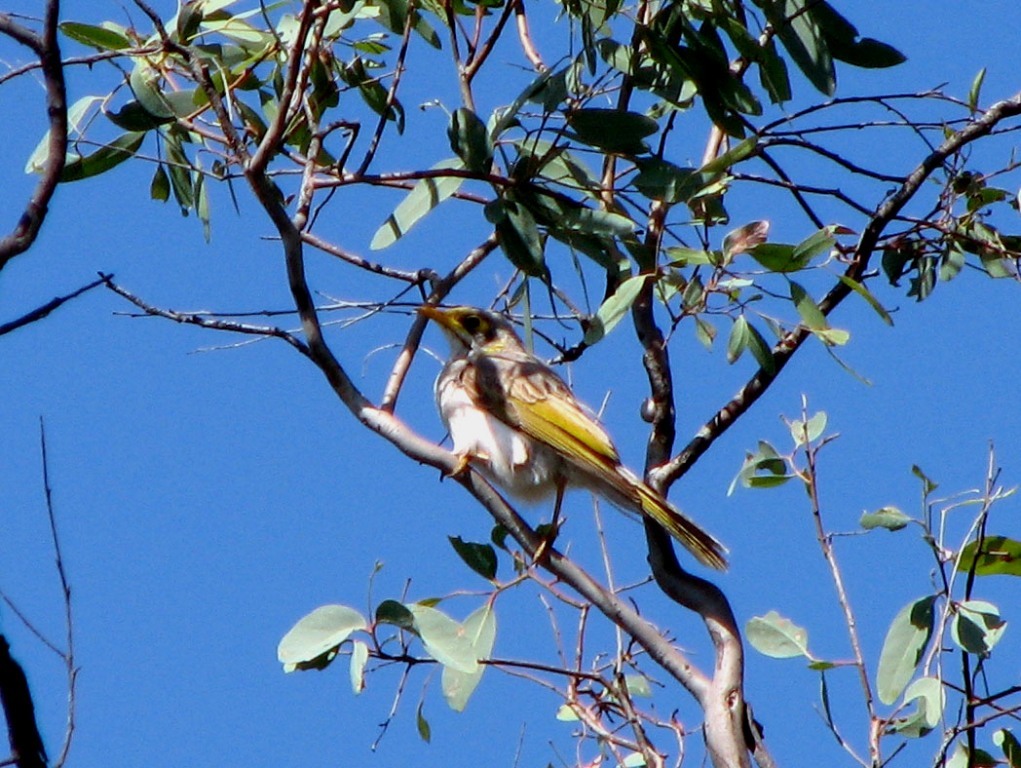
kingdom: Animalia
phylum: Chordata
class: Aves
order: Passeriformes
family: Meliphagidae
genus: Manorina
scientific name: Manorina flavigula
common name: Yellow-throated miner
